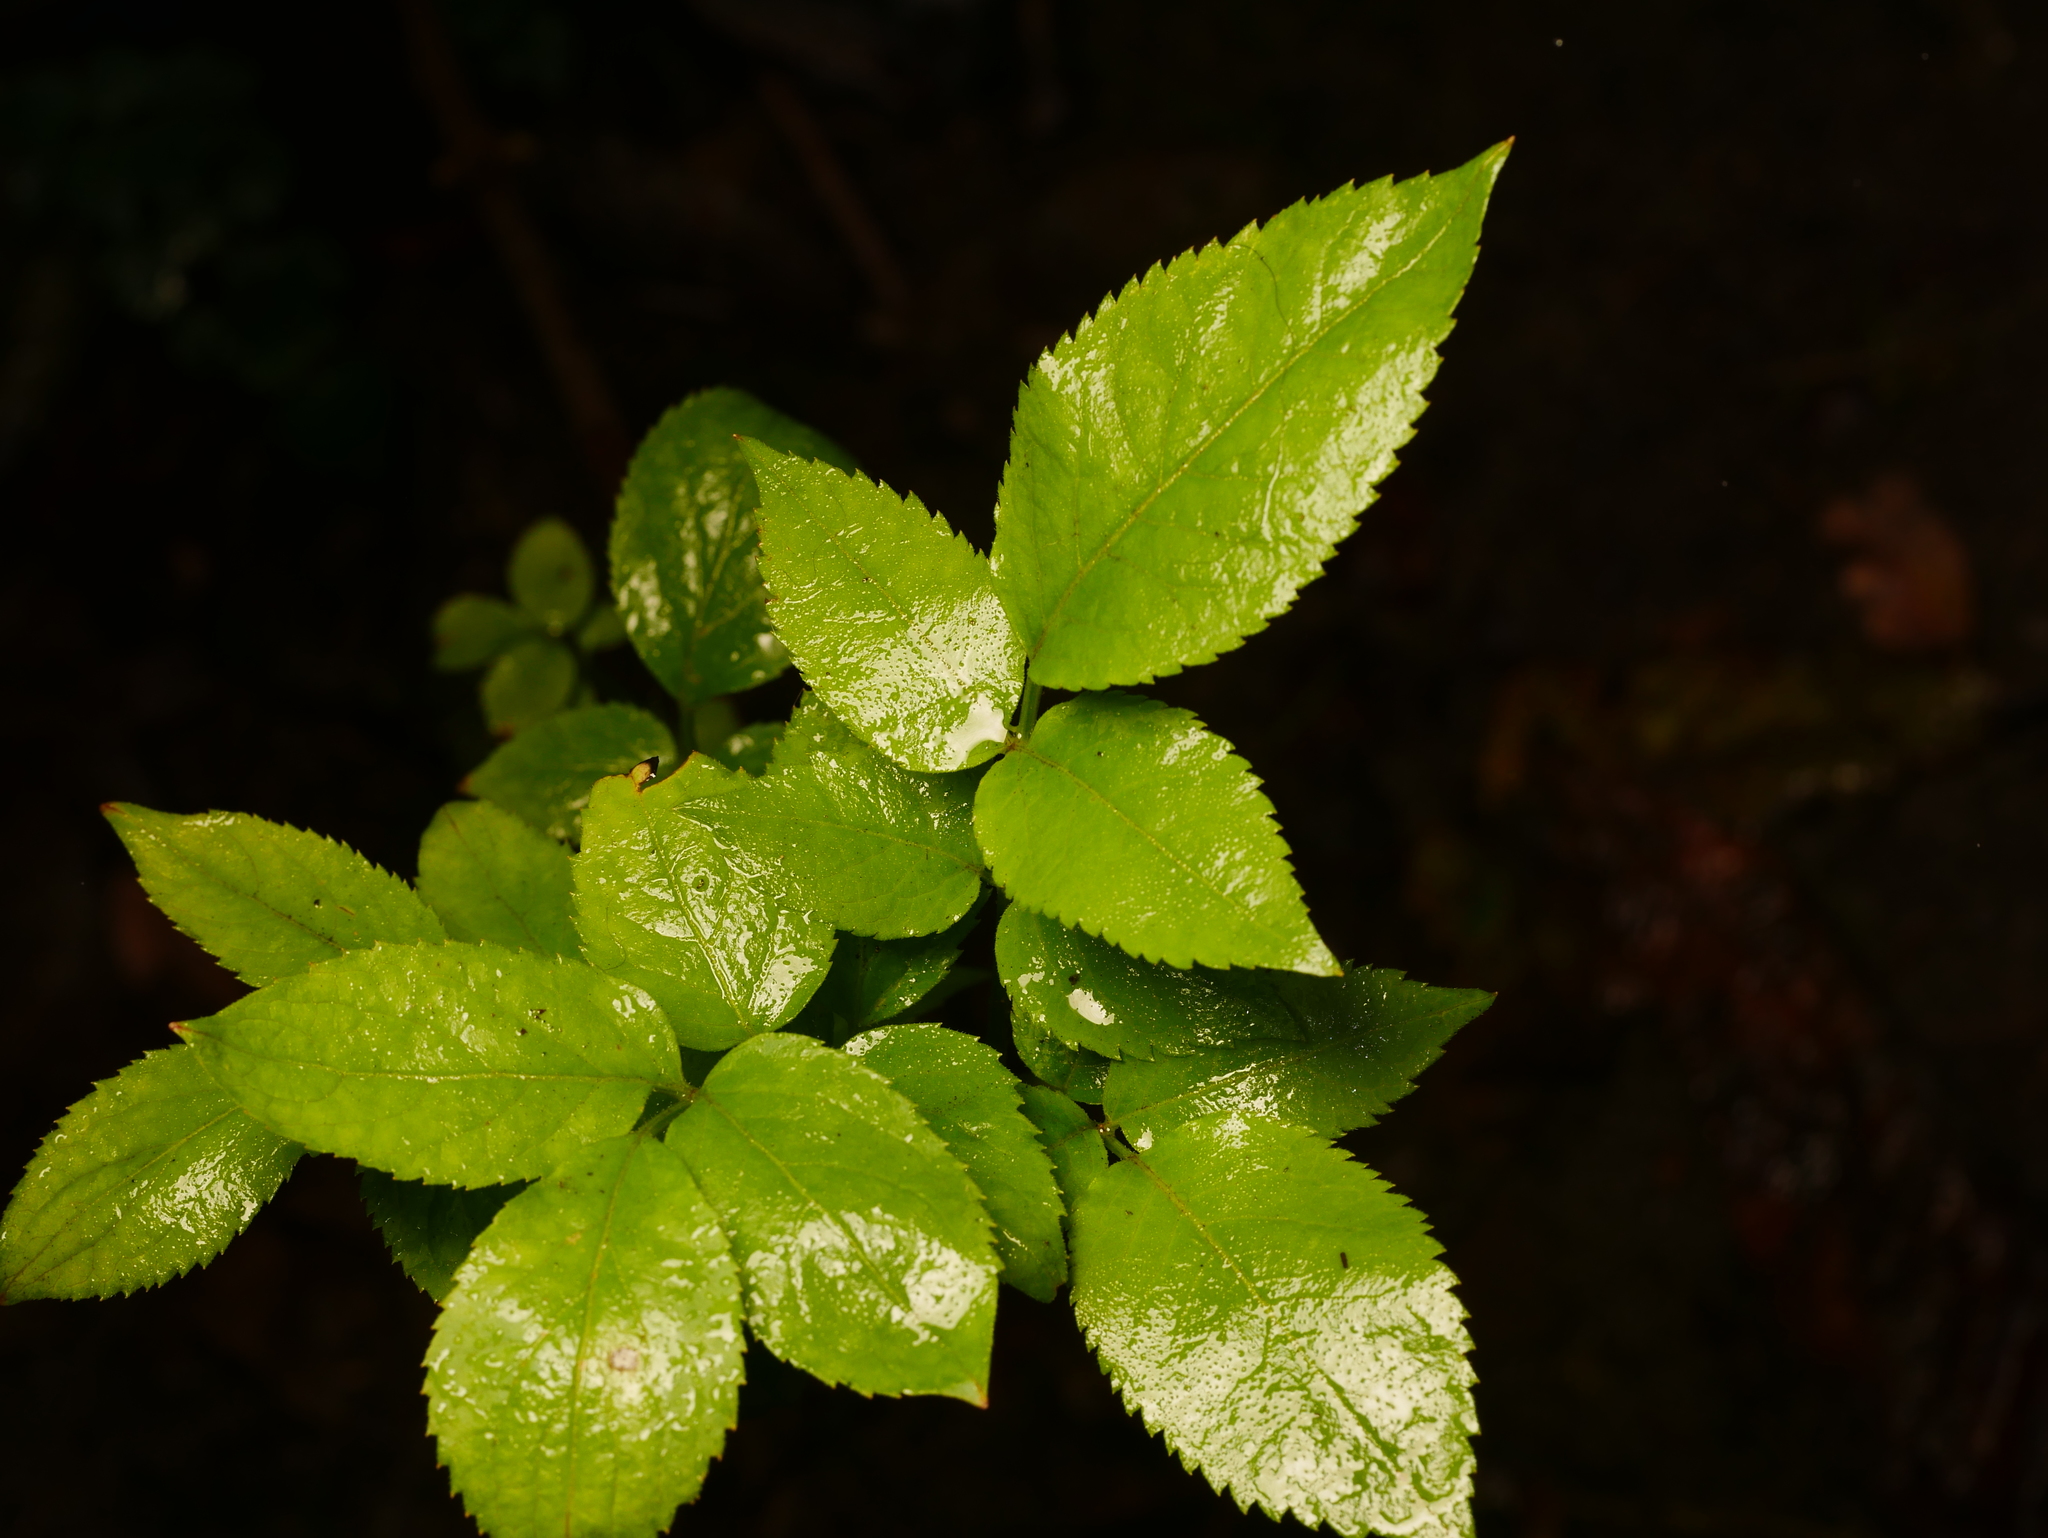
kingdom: Plantae
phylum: Tracheophyta
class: Magnoliopsida
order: Dipsacales
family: Viburnaceae
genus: Sambucus
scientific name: Sambucus nigra
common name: Elder
